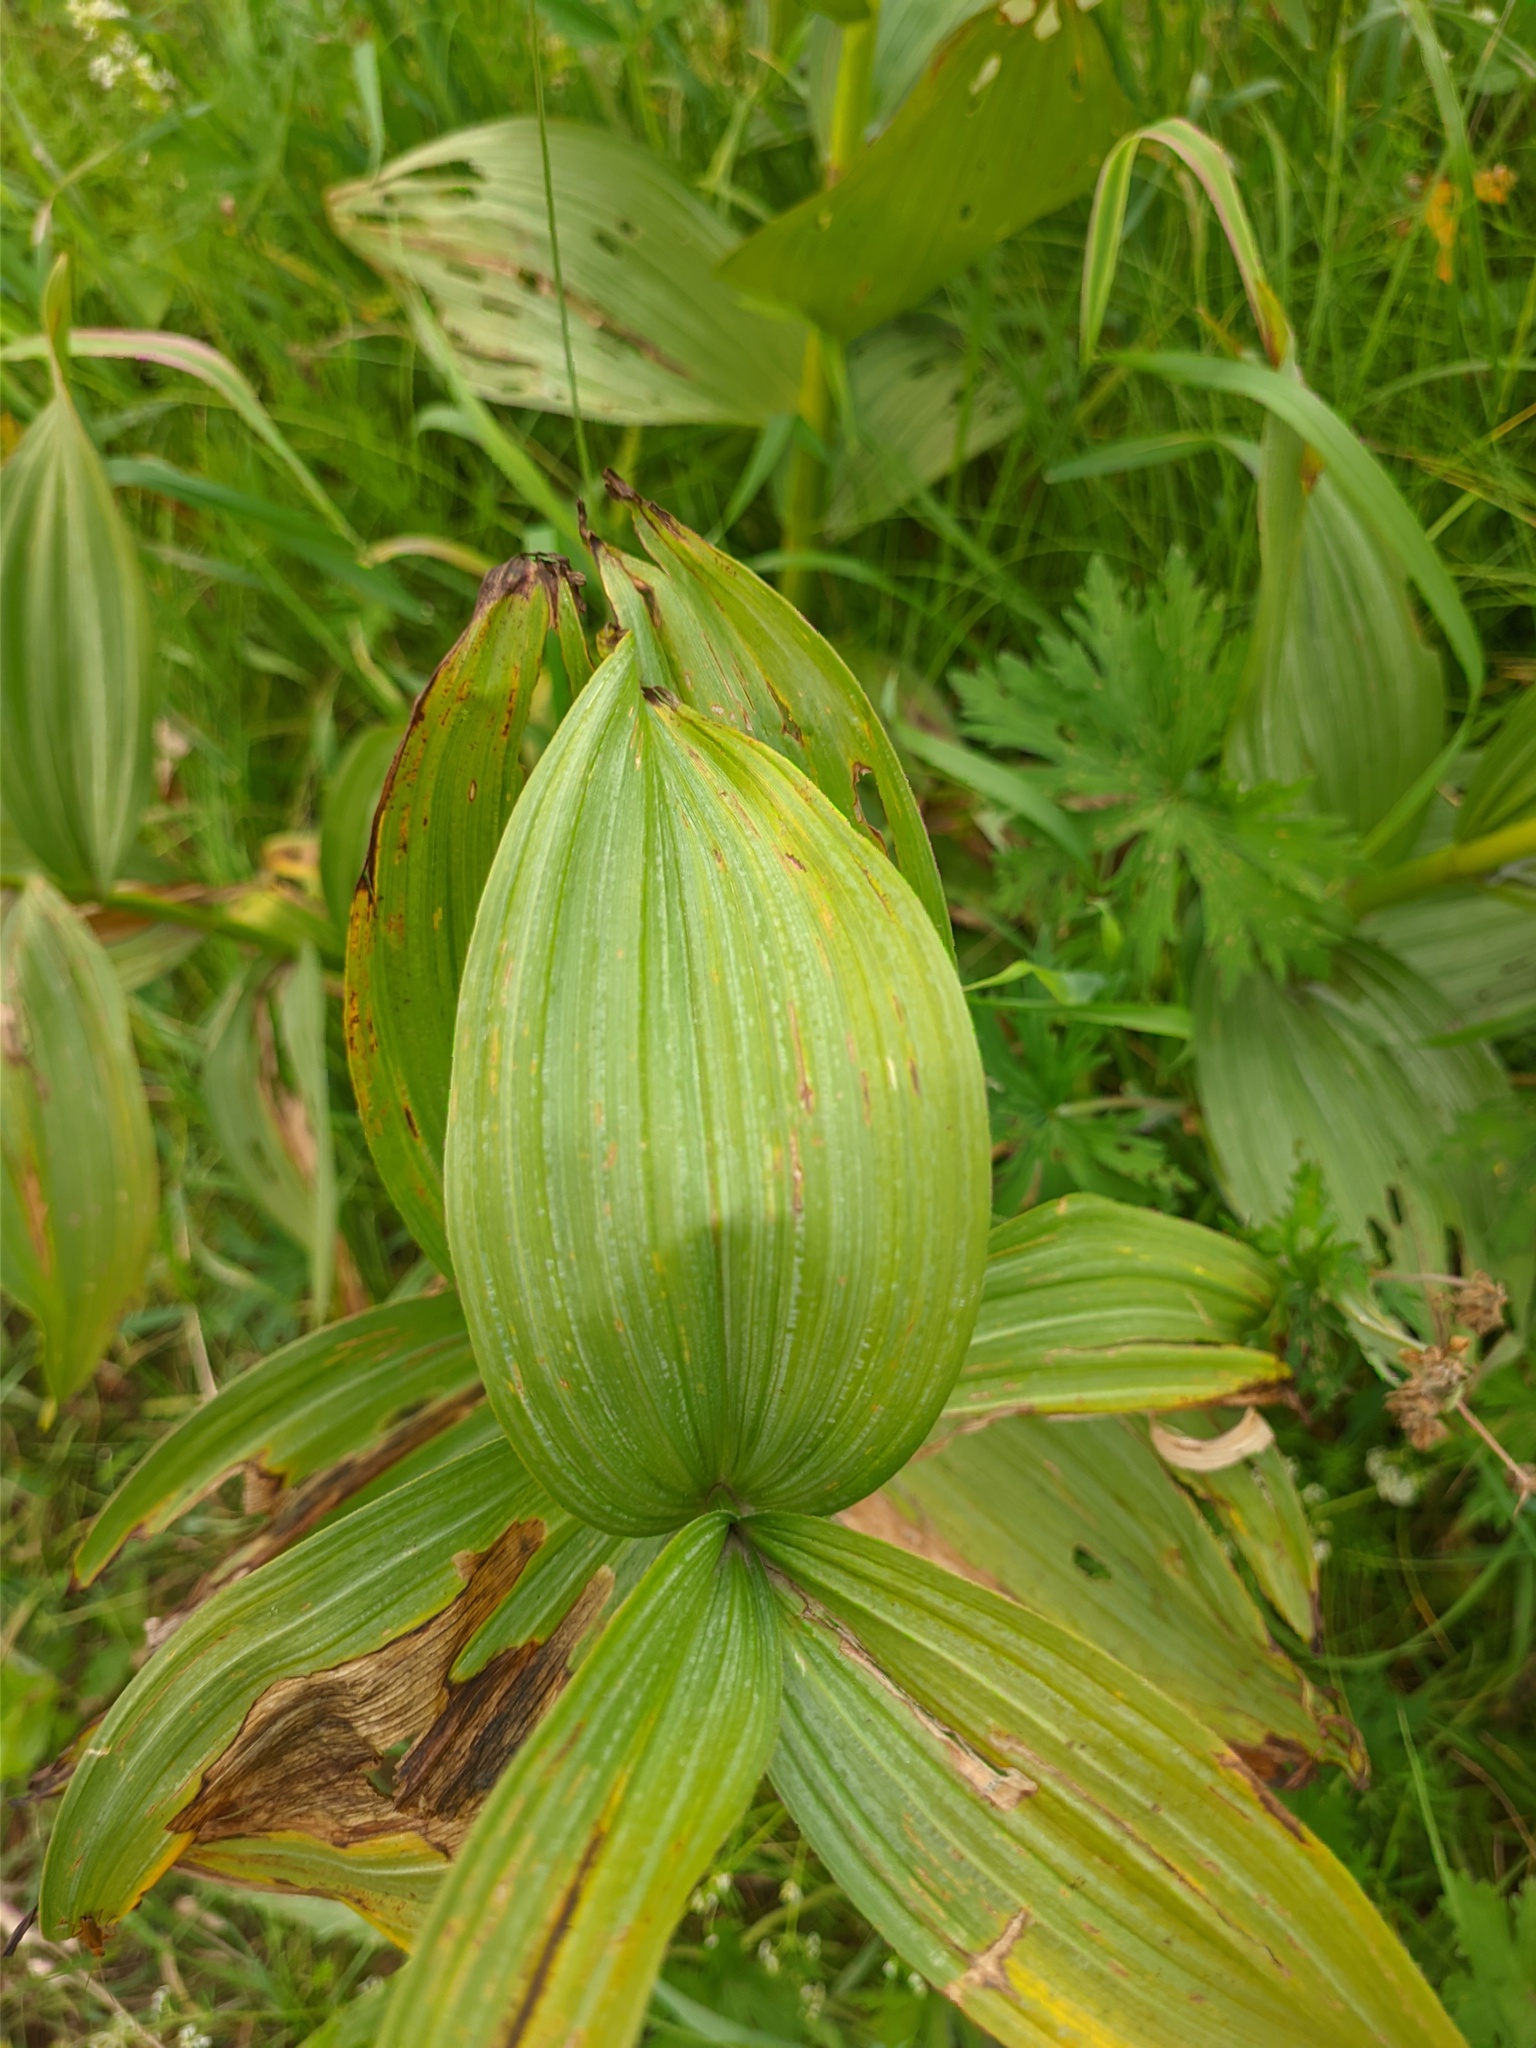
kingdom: Plantae
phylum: Tracheophyta
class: Liliopsida
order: Liliales
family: Melanthiaceae
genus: Veratrum
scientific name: Veratrum lobelianum
